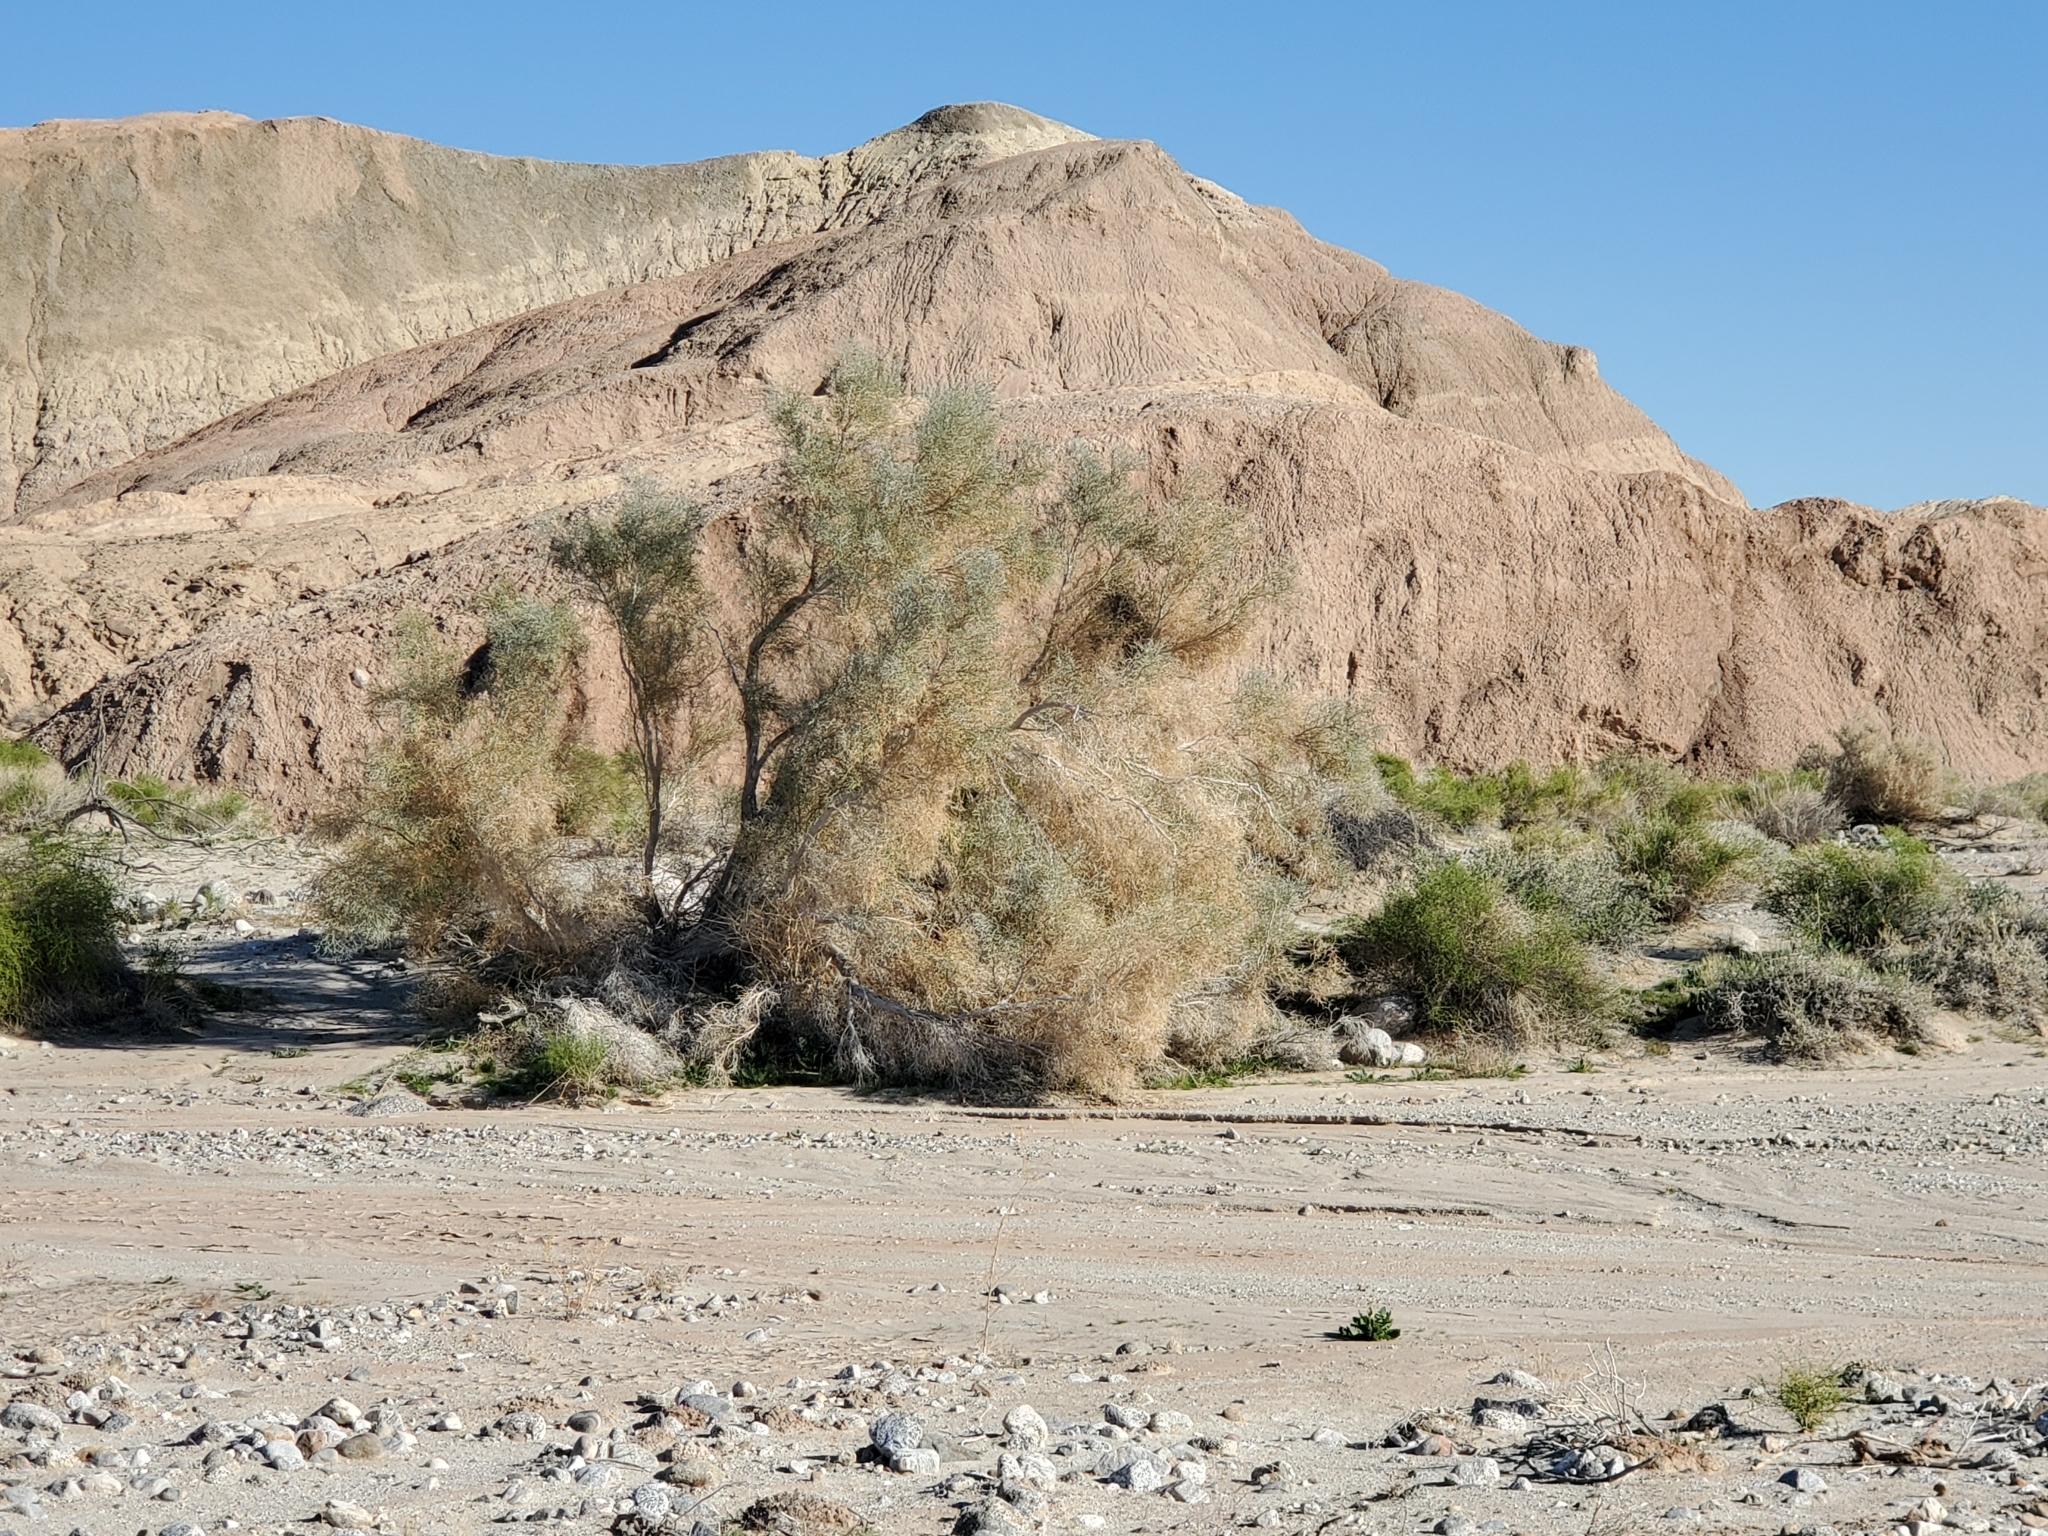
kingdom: Plantae
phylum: Tracheophyta
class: Magnoliopsida
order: Fabales
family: Fabaceae
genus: Psorothamnus
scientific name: Psorothamnus spinosus
